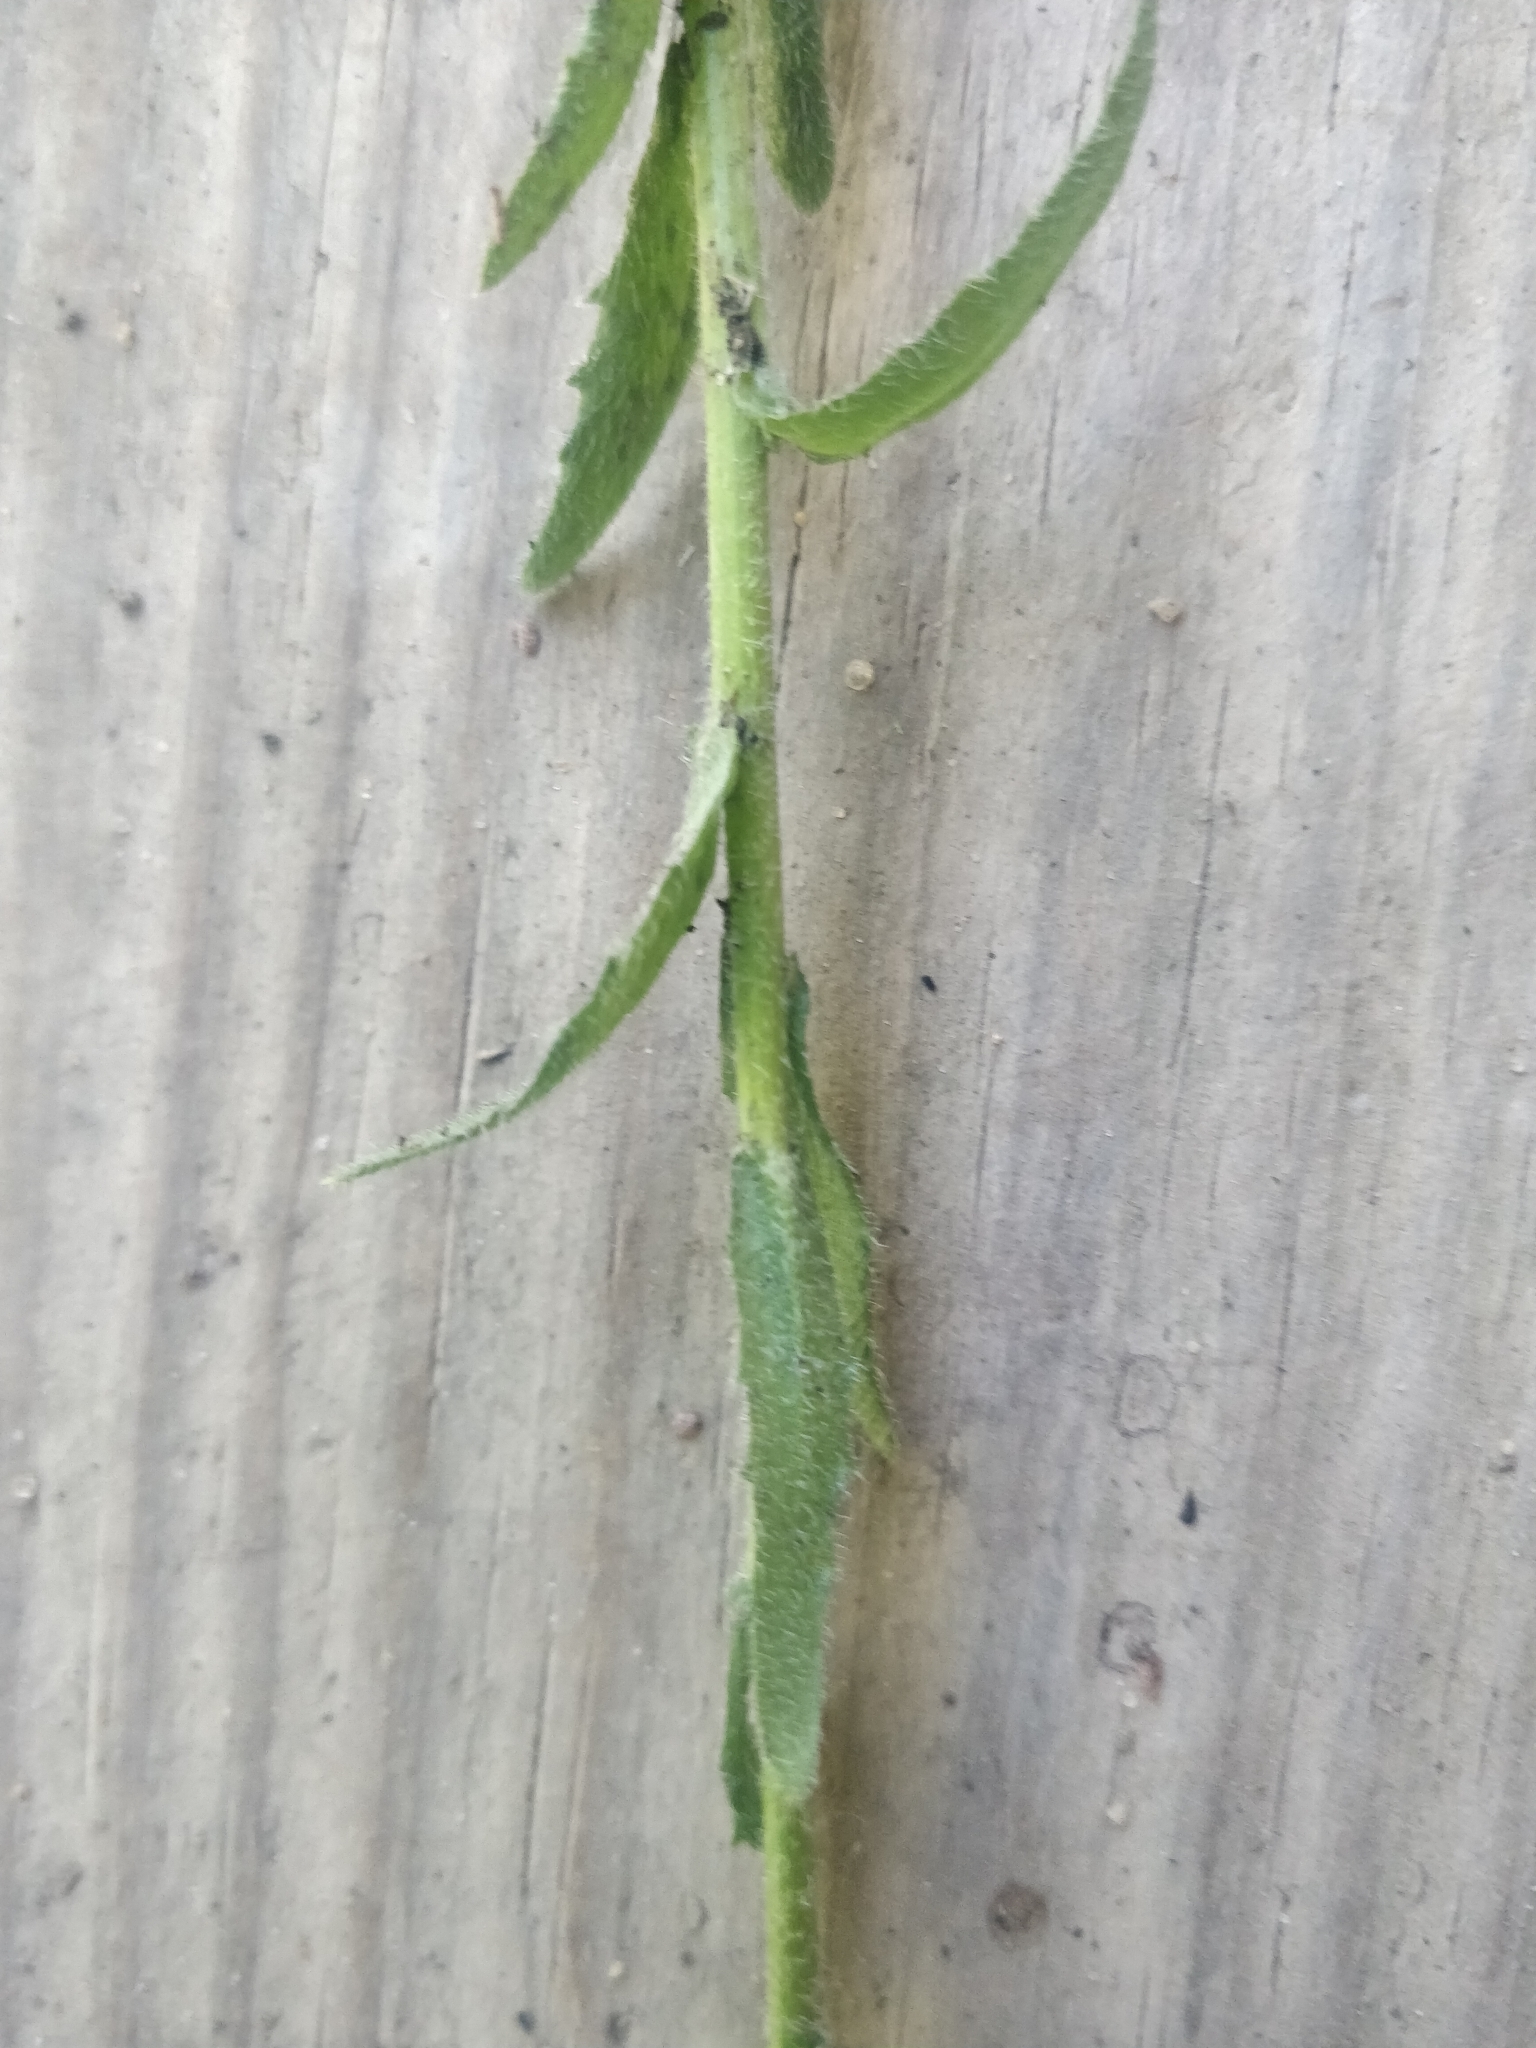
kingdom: Plantae
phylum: Tracheophyta
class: Magnoliopsida
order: Brassicales
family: Brassicaceae
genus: Turritis
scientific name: Turritis glabra
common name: Tower rockcress
